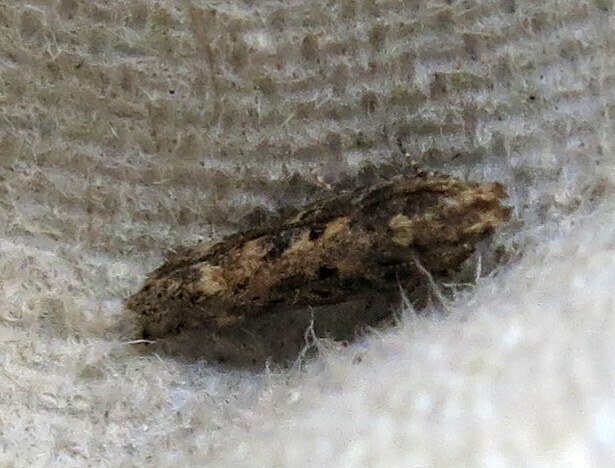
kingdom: Animalia
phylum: Arthropoda
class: Insecta
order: Lepidoptera
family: Gelechiidae
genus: Scrobipalpa
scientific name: Scrobipalpa ocellatella
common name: Beet moth
